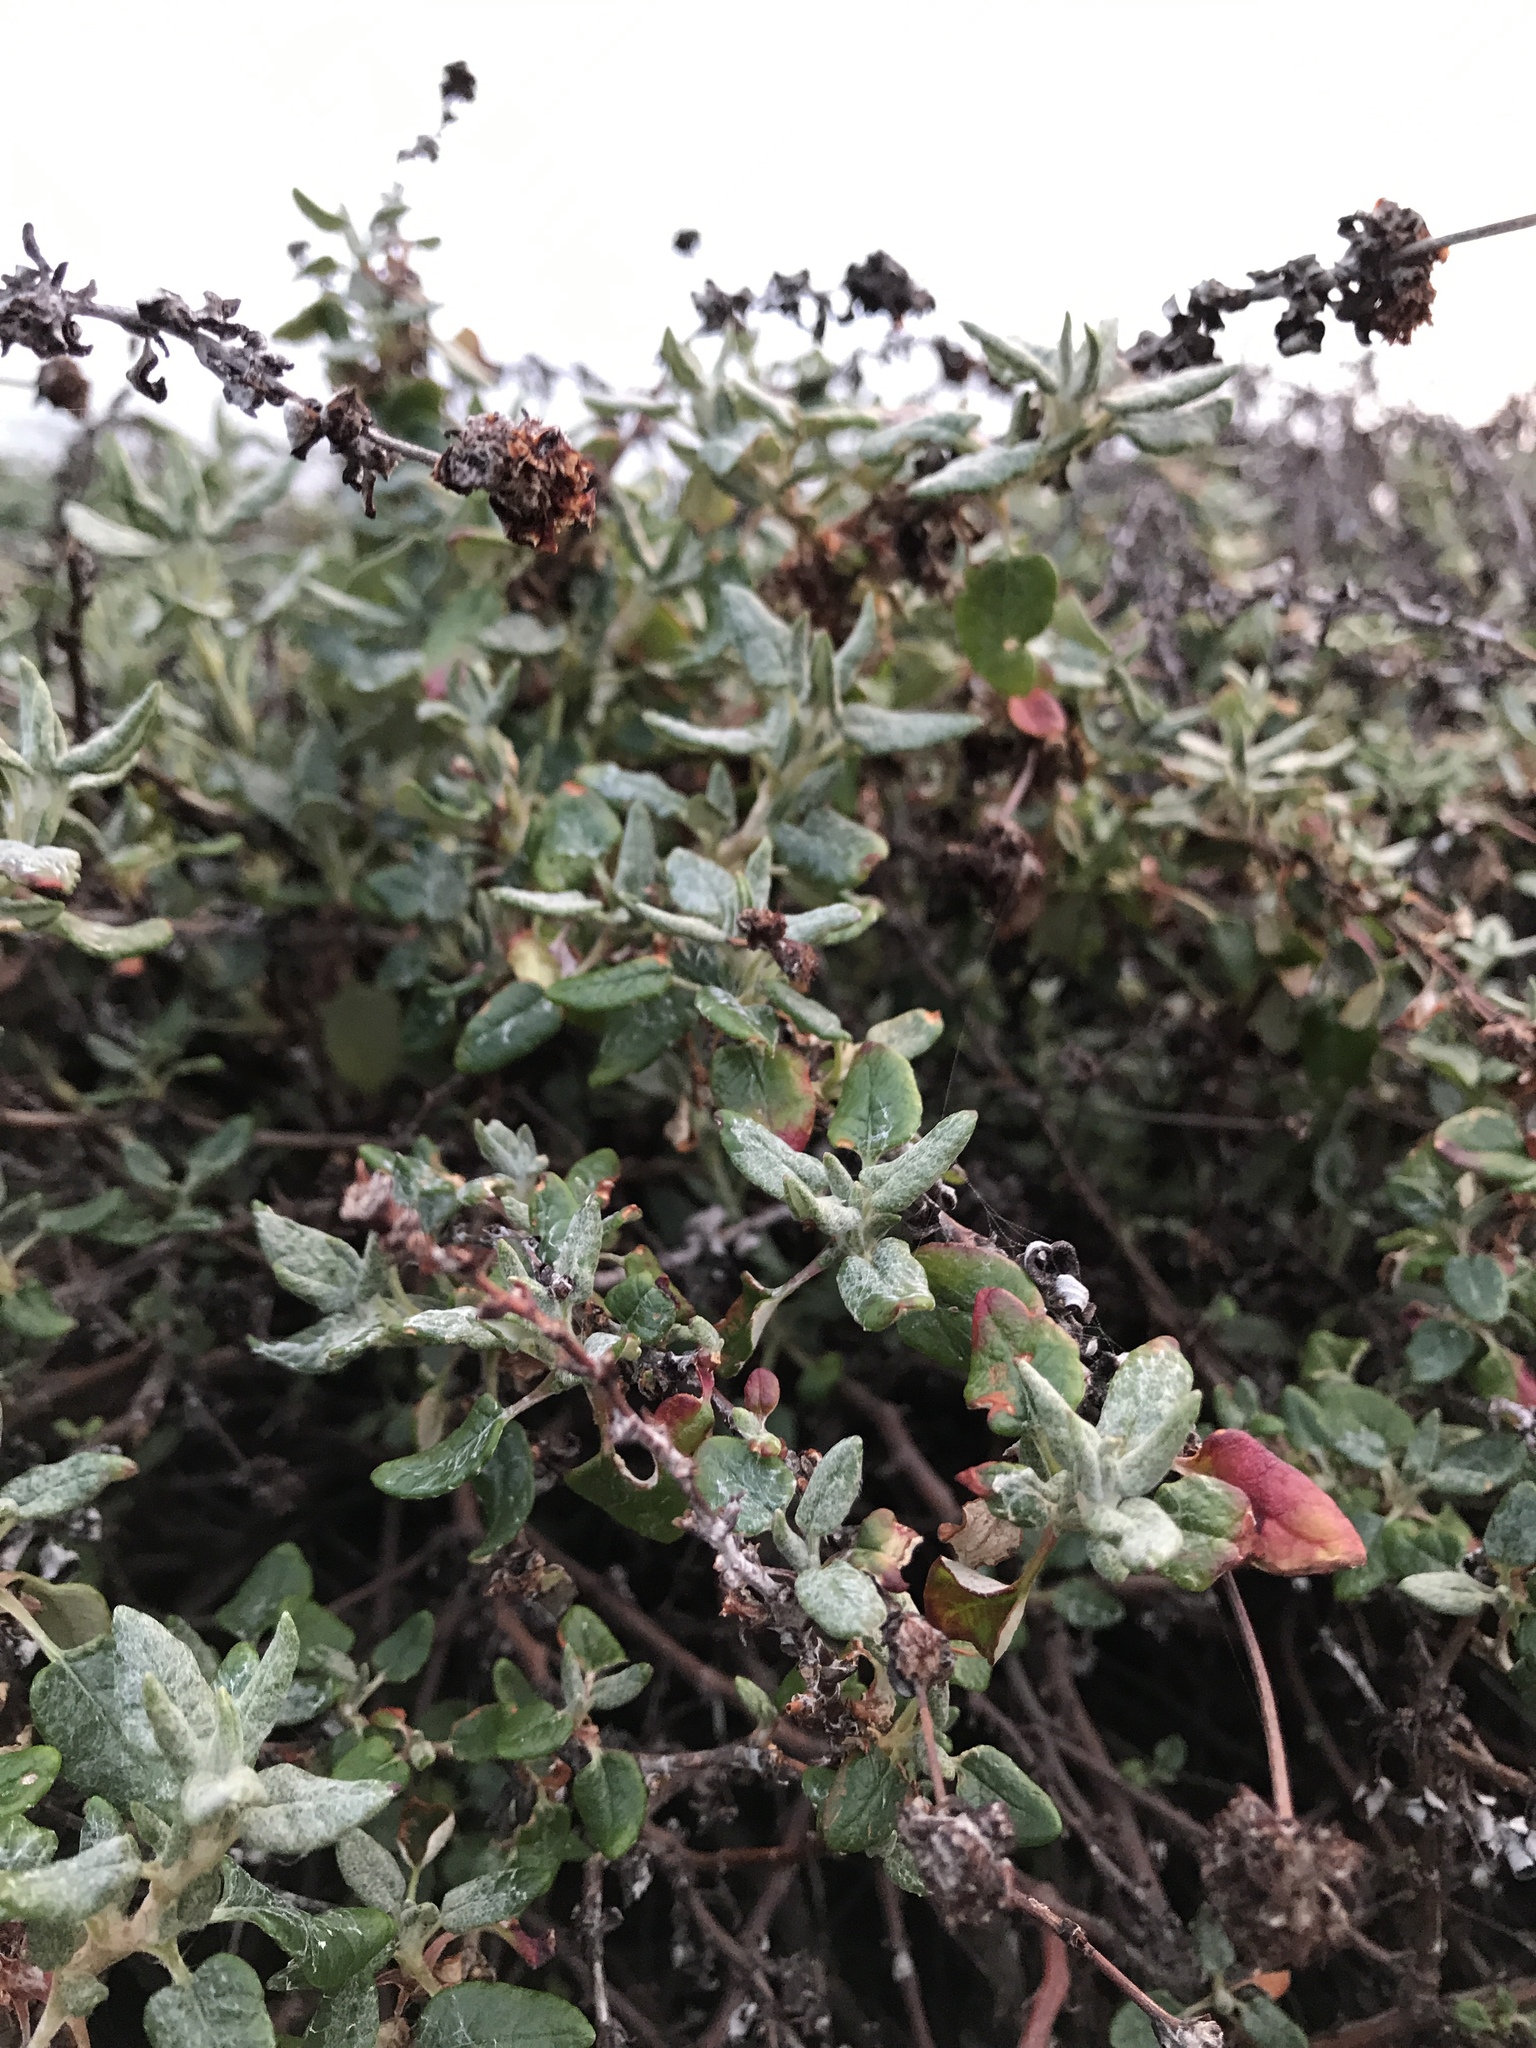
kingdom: Plantae
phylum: Tracheophyta
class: Magnoliopsida
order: Caryophyllales
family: Polygonaceae
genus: Eriogonum
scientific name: Eriogonum parvifolium
